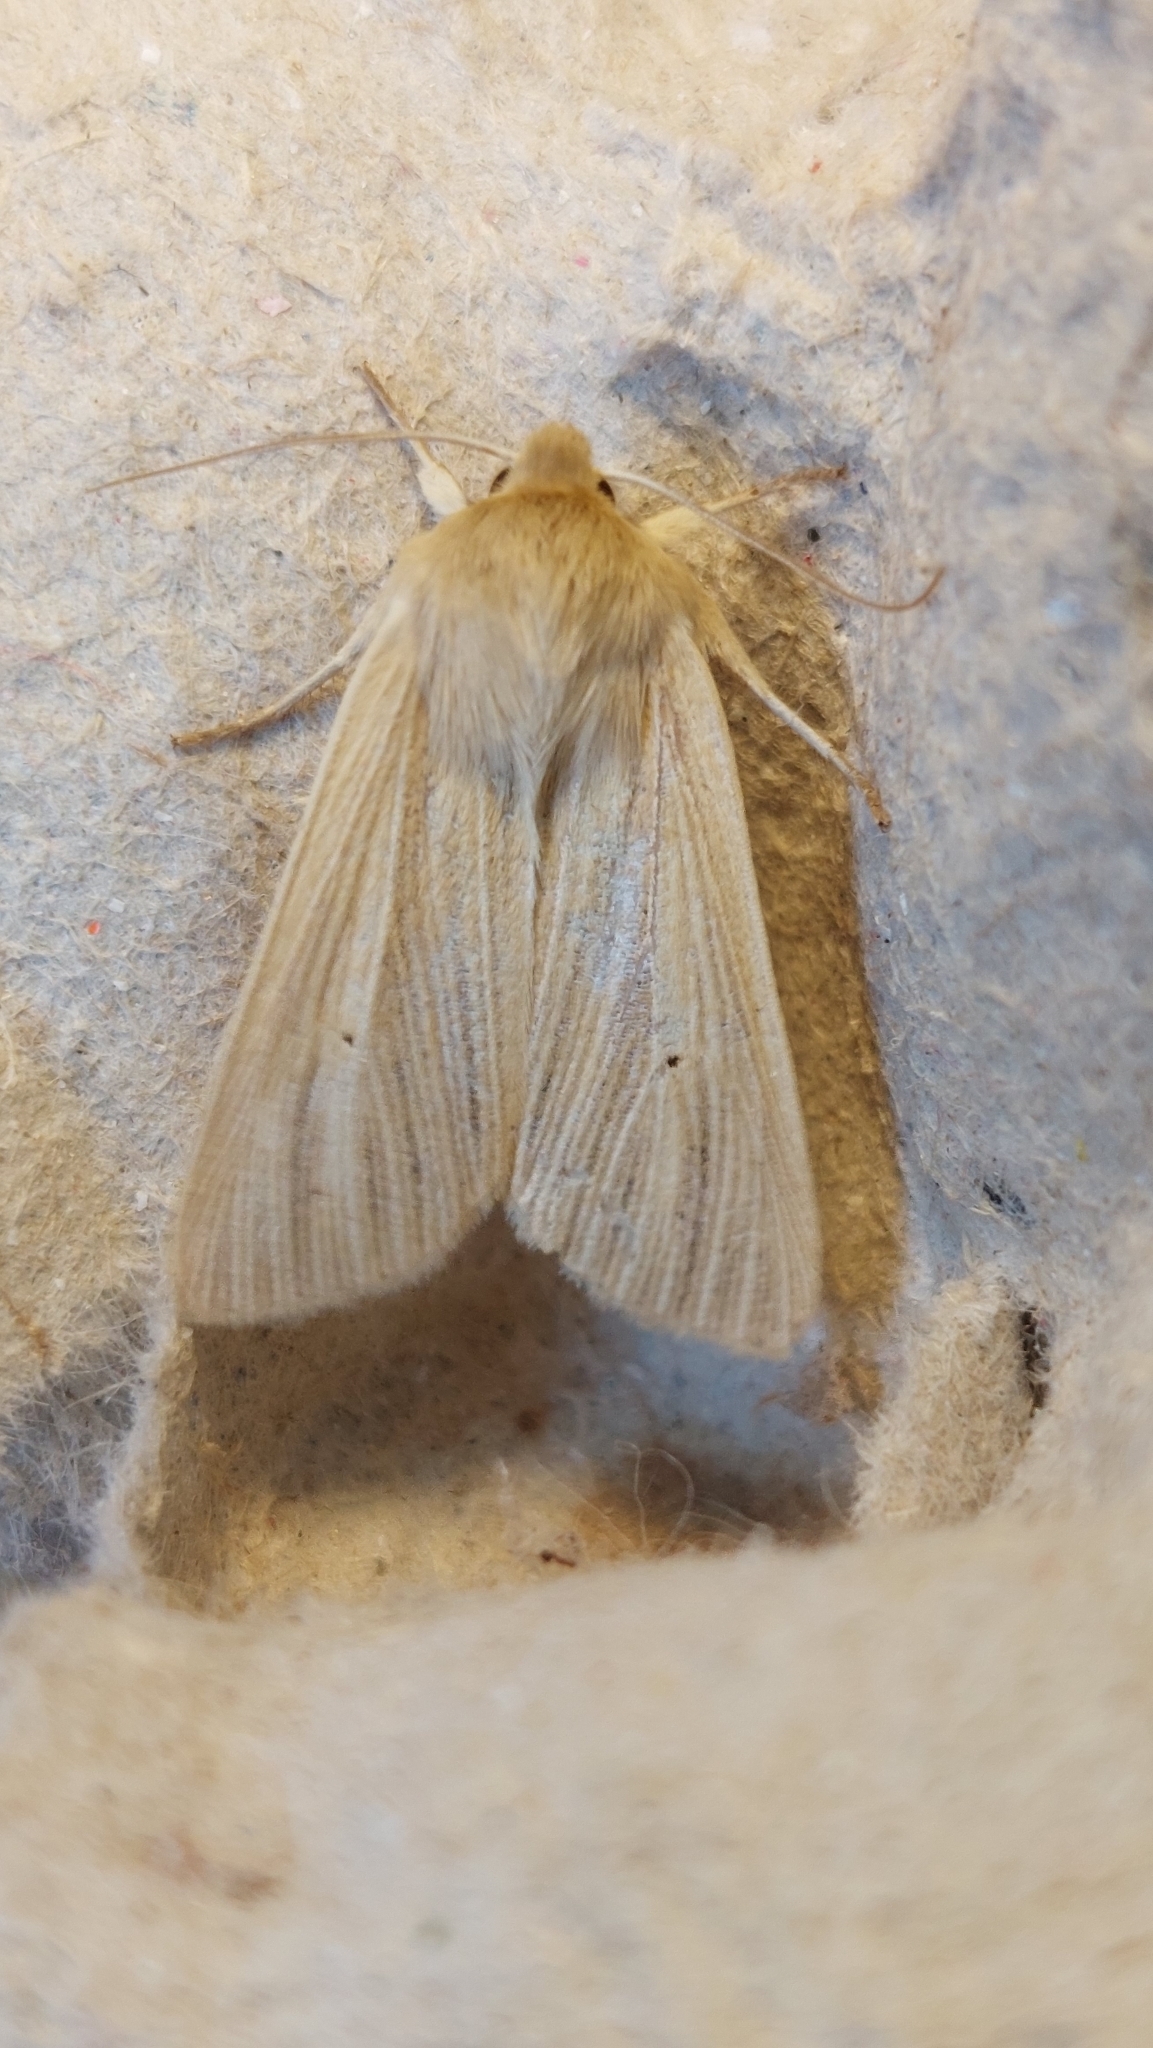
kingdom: Animalia
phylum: Arthropoda
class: Insecta
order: Lepidoptera
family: Noctuidae
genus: Mythimna
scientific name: Mythimna pallens
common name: Common wainscot
